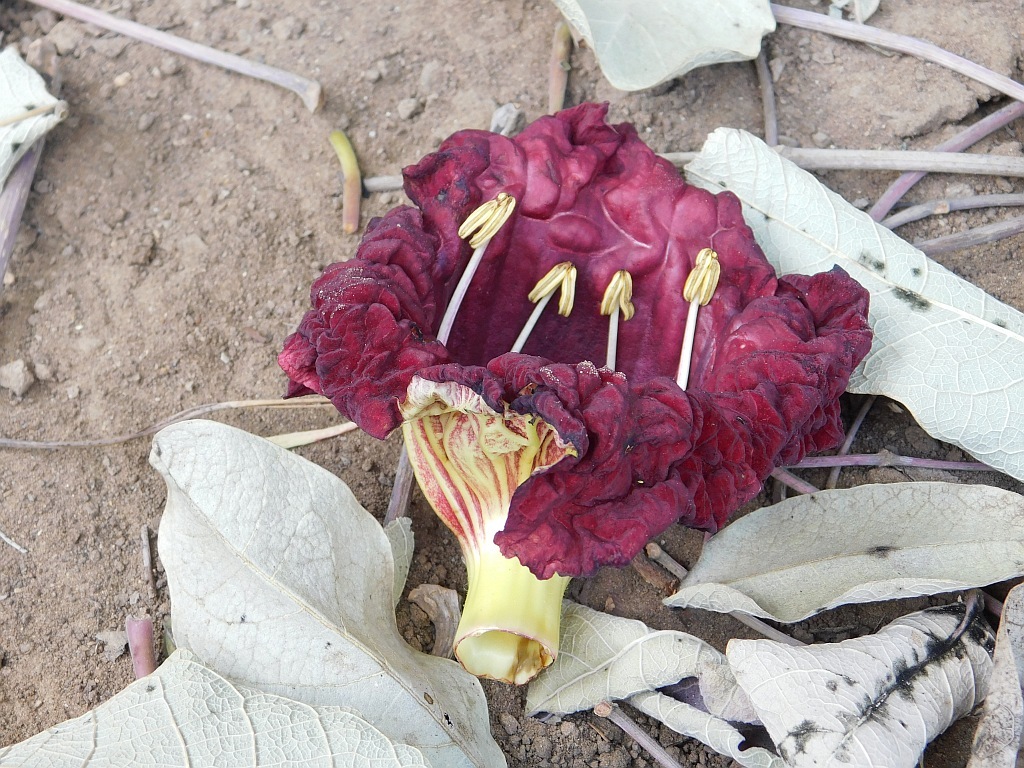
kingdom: Plantae
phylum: Tracheophyta
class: Magnoliopsida
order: Lamiales
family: Bignoniaceae
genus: Kigelia
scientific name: Kigelia africana
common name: Sausage tree
